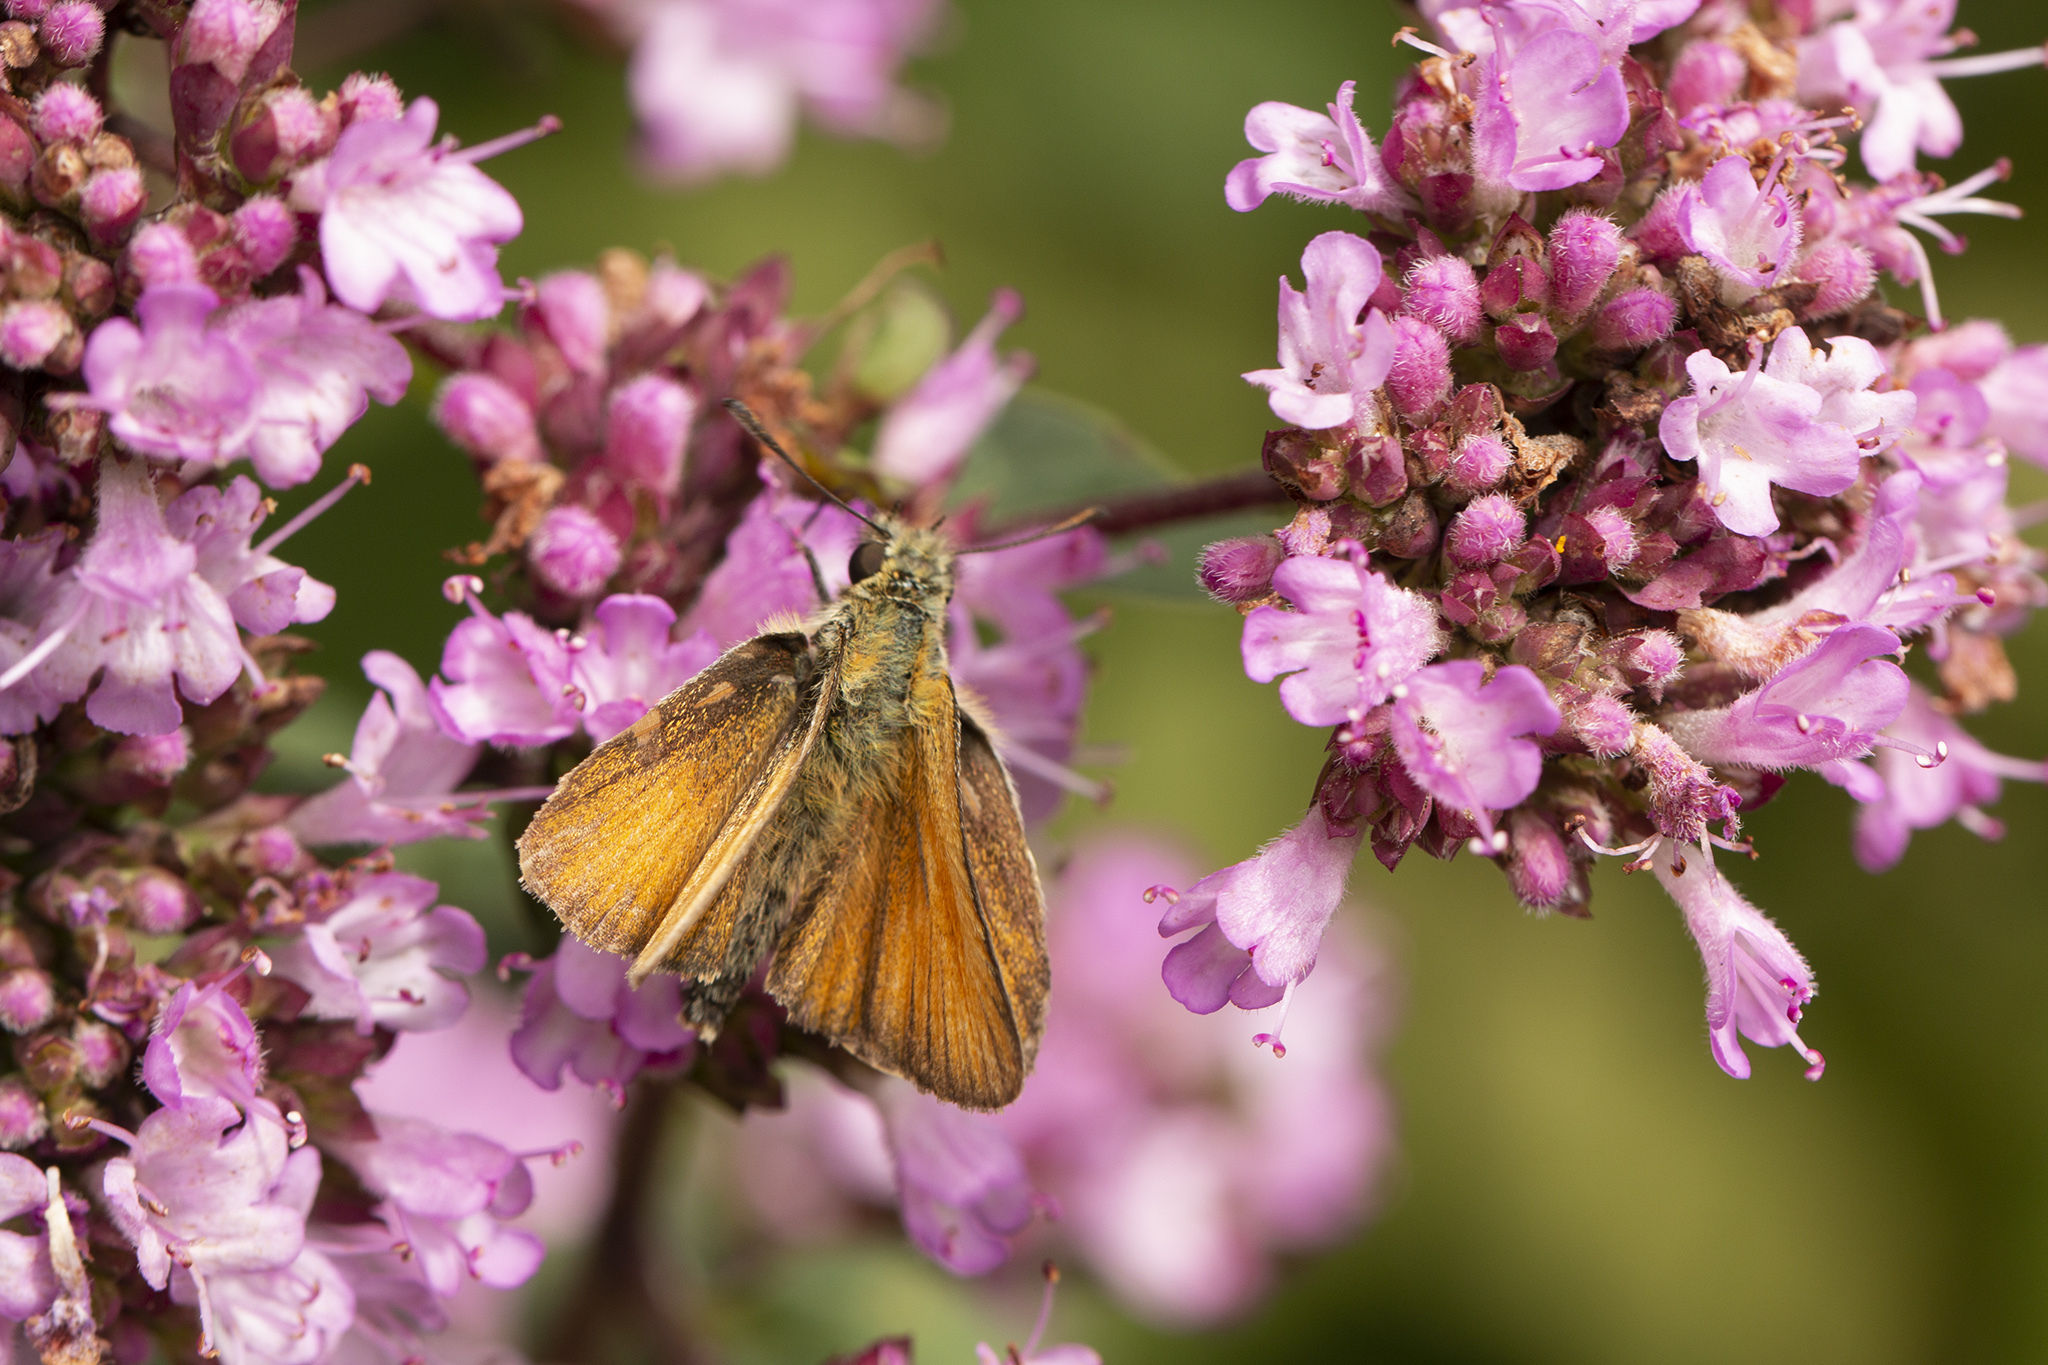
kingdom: Animalia
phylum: Arthropoda
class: Insecta
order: Lepidoptera
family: Hesperiidae
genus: Thymelicus
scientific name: Thymelicus lineola
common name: Essex skipper
